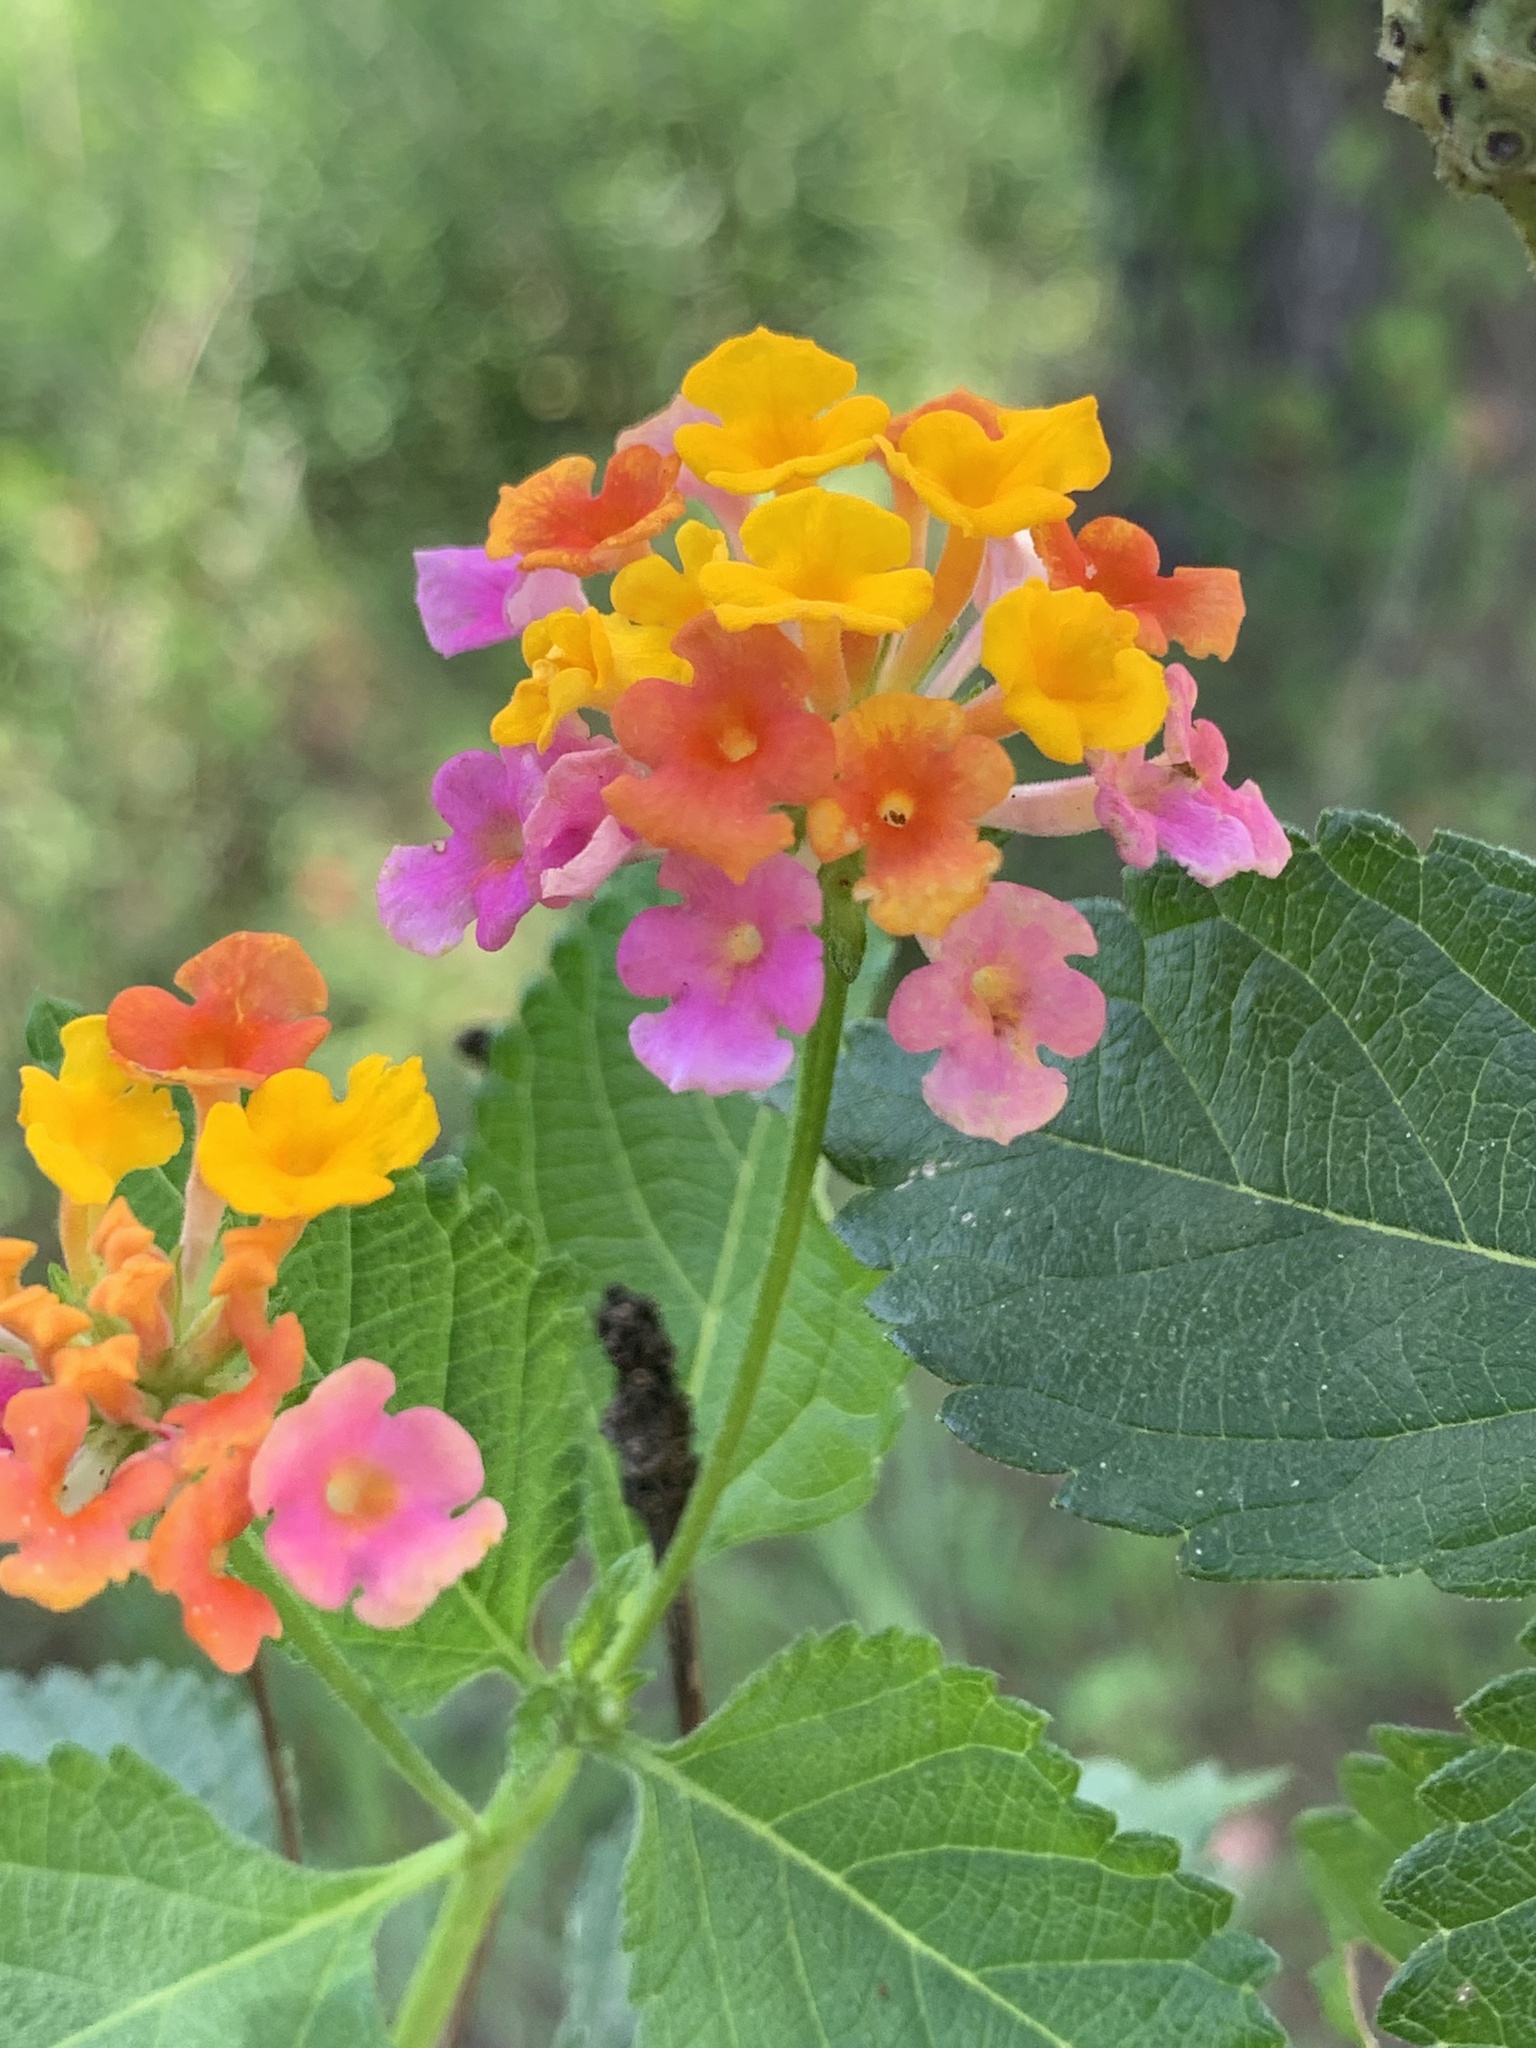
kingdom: Plantae
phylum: Tracheophyta
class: Magnoliopsida
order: Lamiales
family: Verbenaceae
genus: Lantana
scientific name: Lantana strigocamara
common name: Lantana
